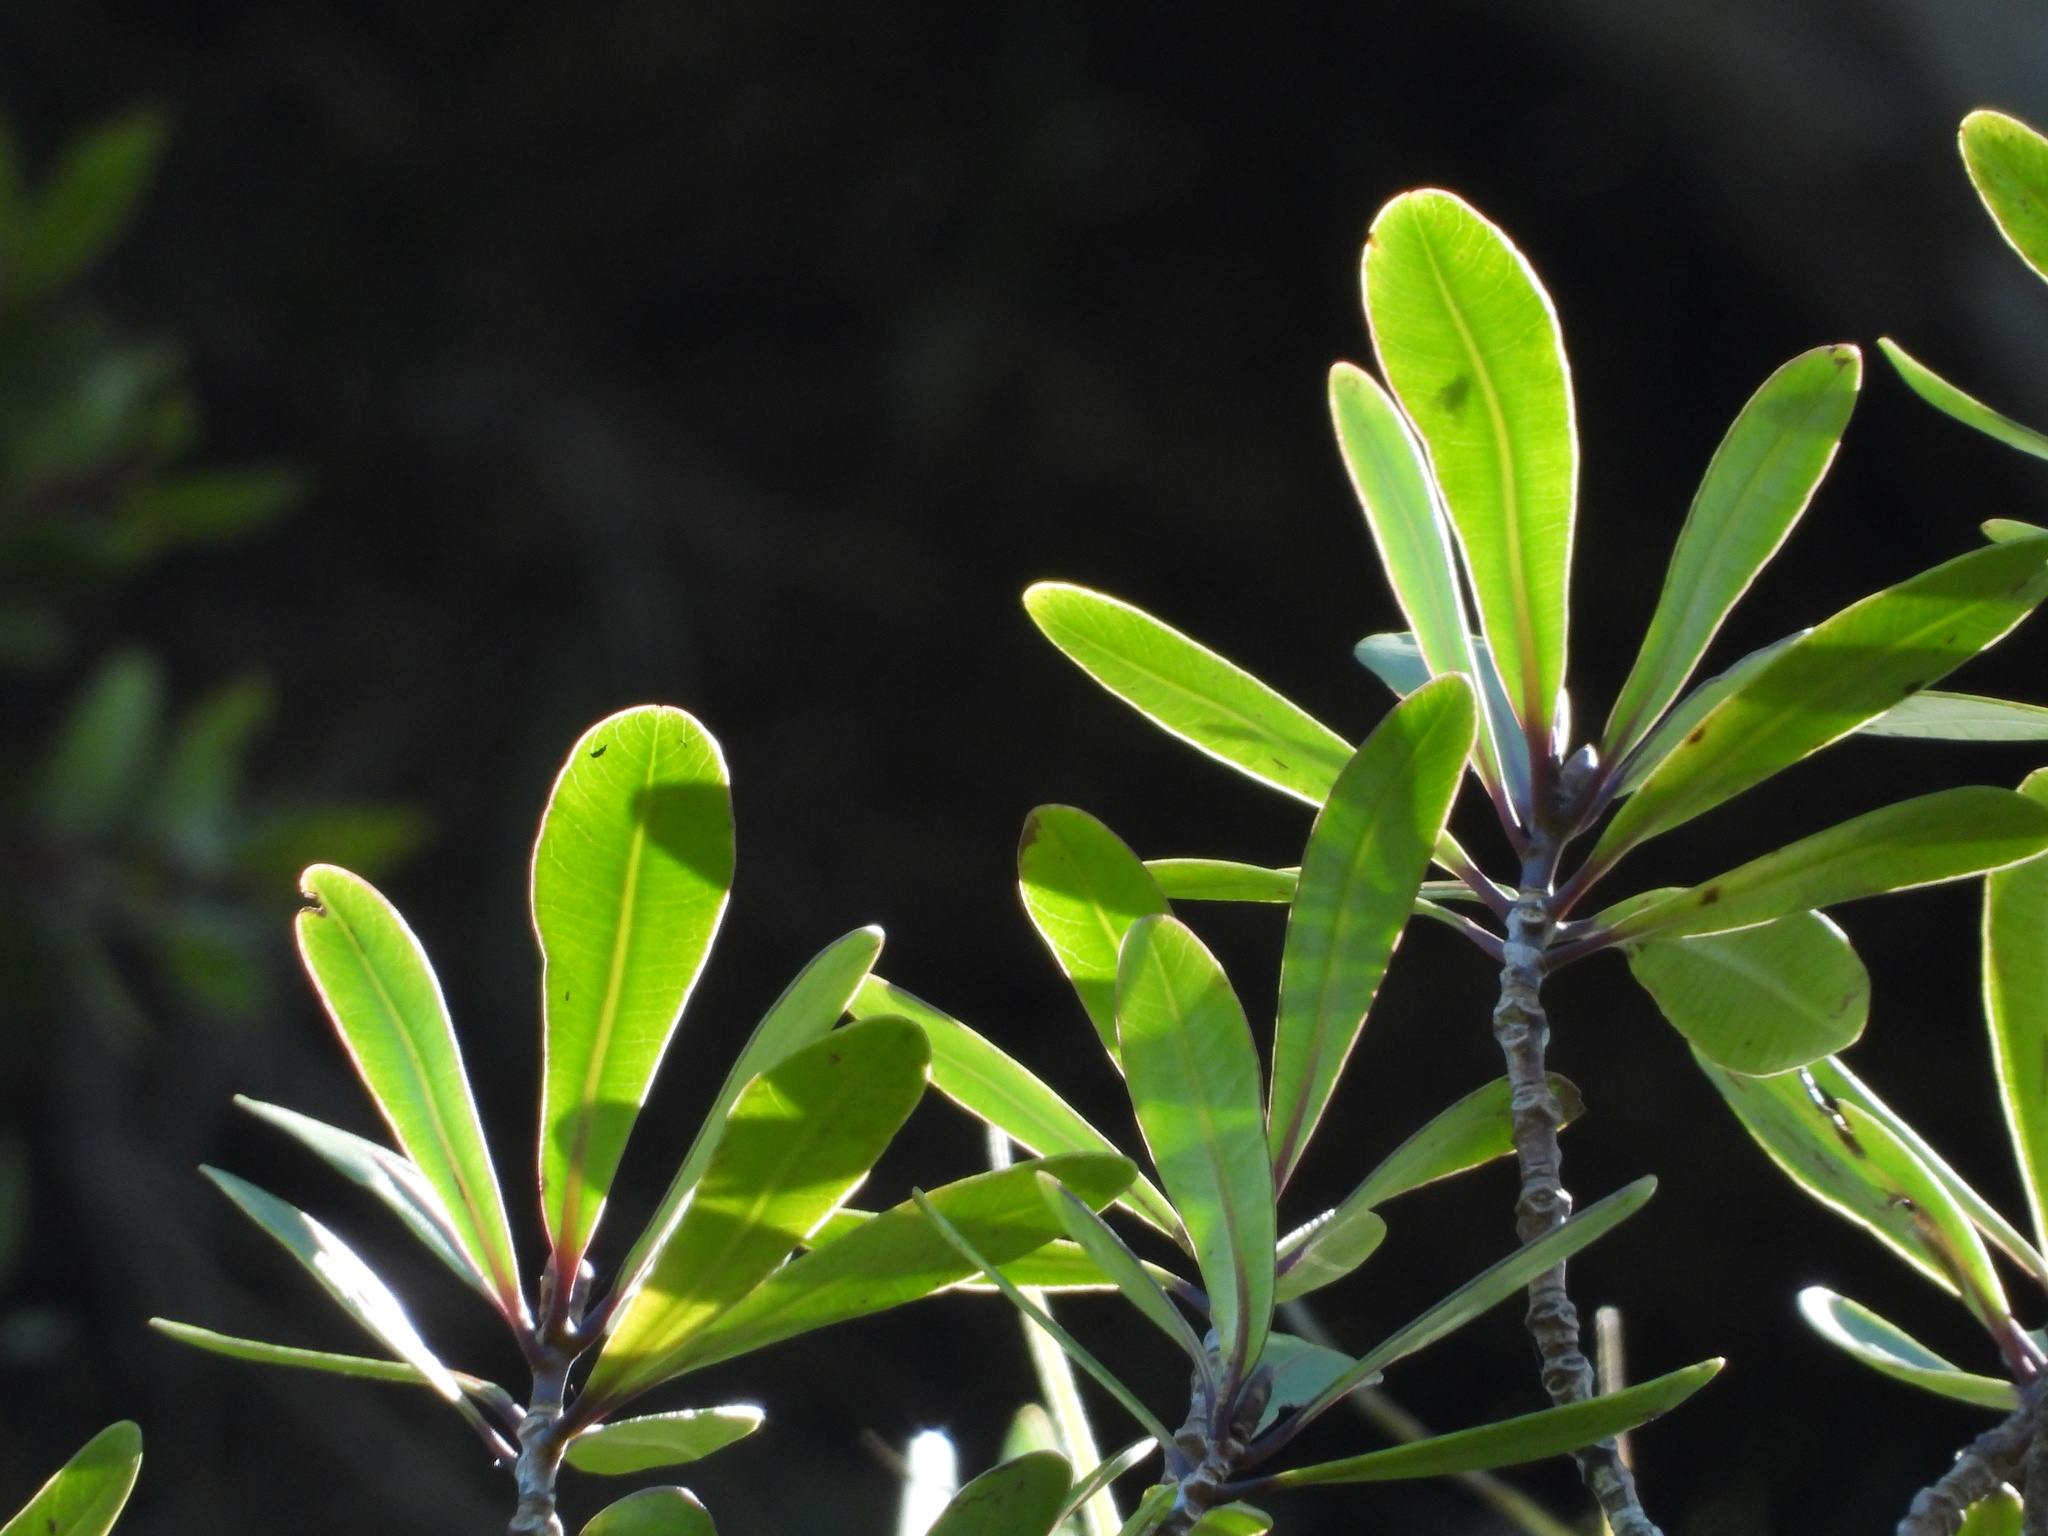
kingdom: Plantae
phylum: Tracheophyta
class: Magnoliopsida
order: Apiales
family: Pittosporaceae
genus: Pittosporum
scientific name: Pittosporum kirkii
